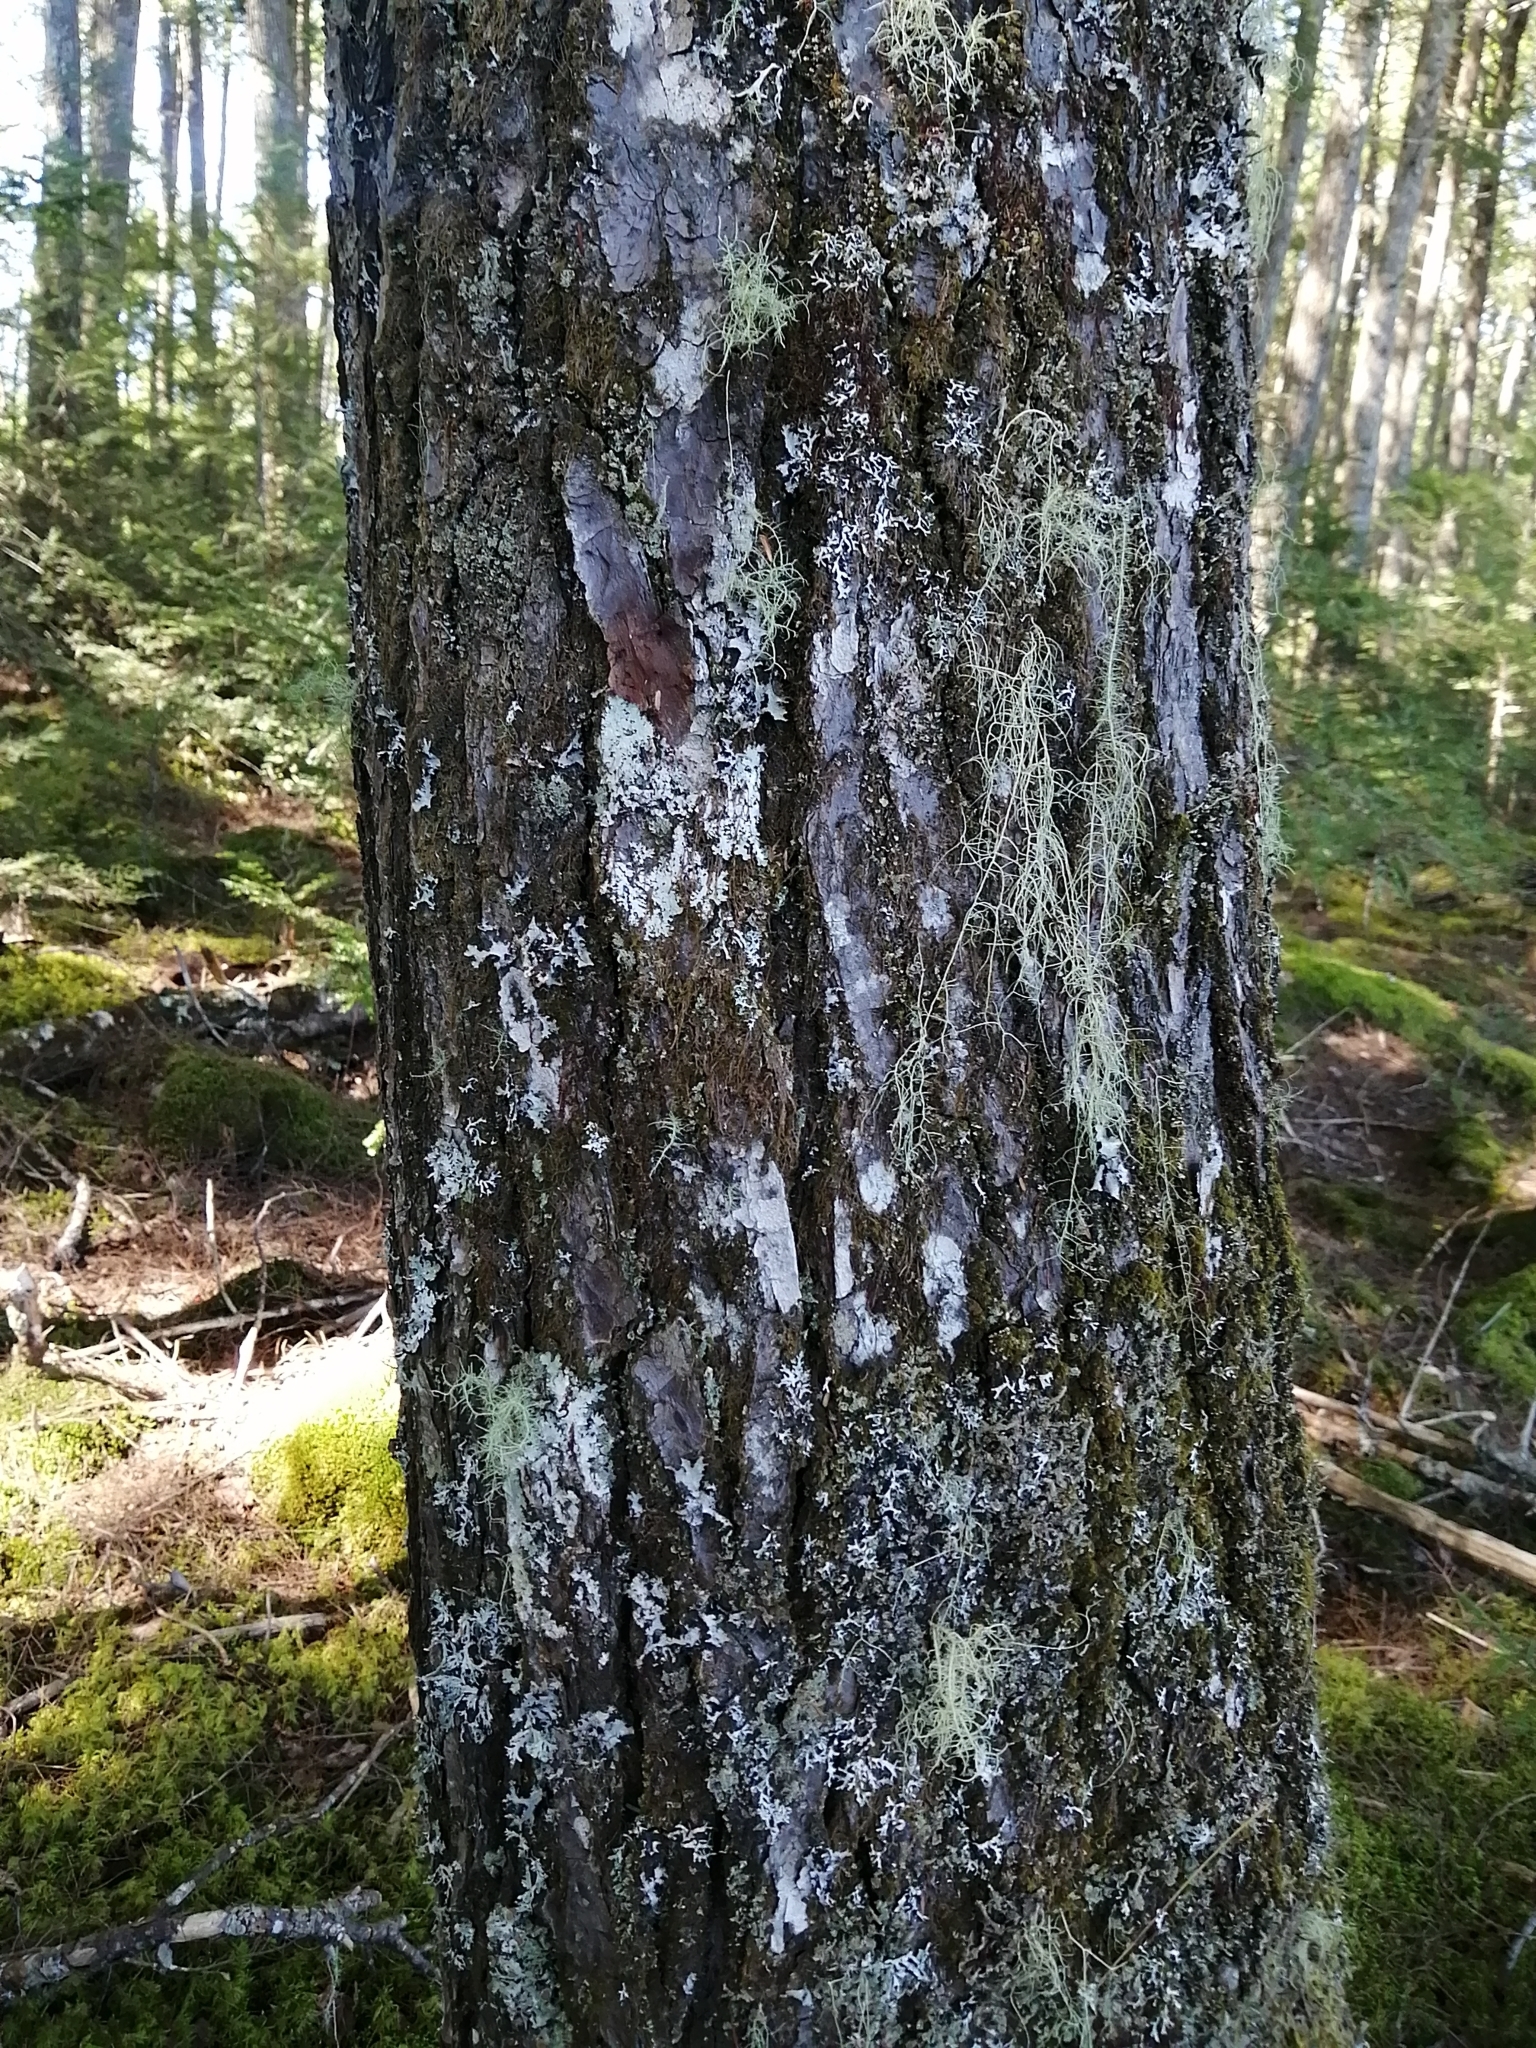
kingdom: Plantae
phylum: Tracheophyta
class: Pinopsida
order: Pinales
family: Pinaceae
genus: Tsuga
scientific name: Tsuga canadensis
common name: Eastern hemlock
